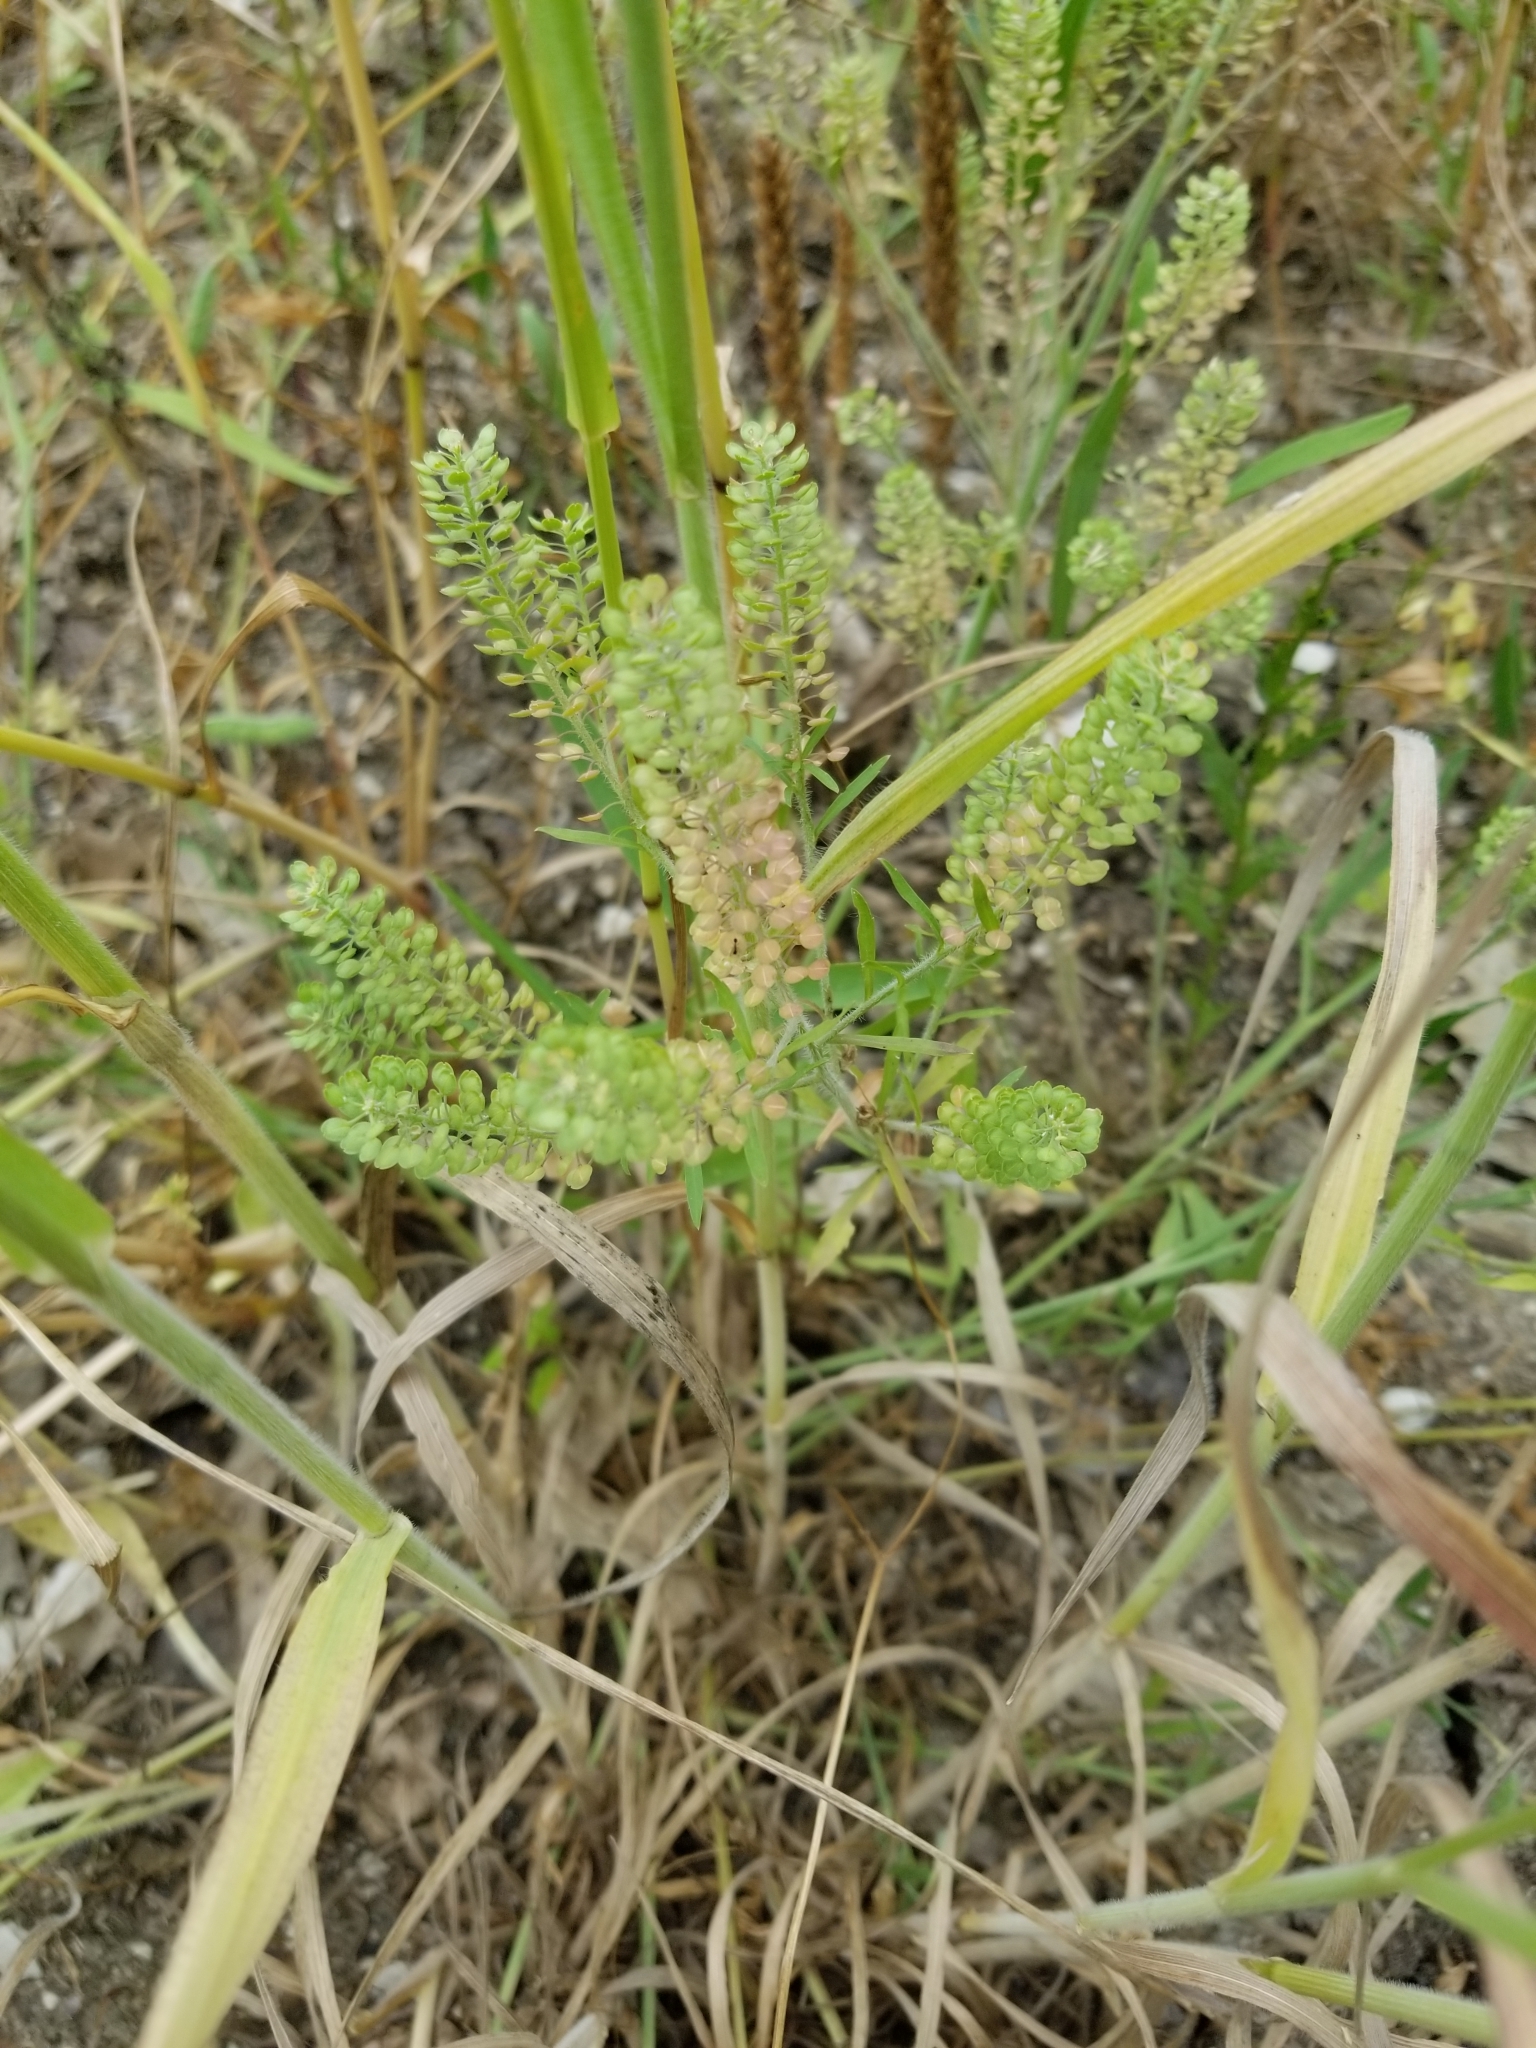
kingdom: Plantae
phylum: Tracheophyta
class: Magnoliopsida
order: Brassicales
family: Brassicaceae
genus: Lepidium
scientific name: Lepidium virginicum
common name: Least pepperwort
